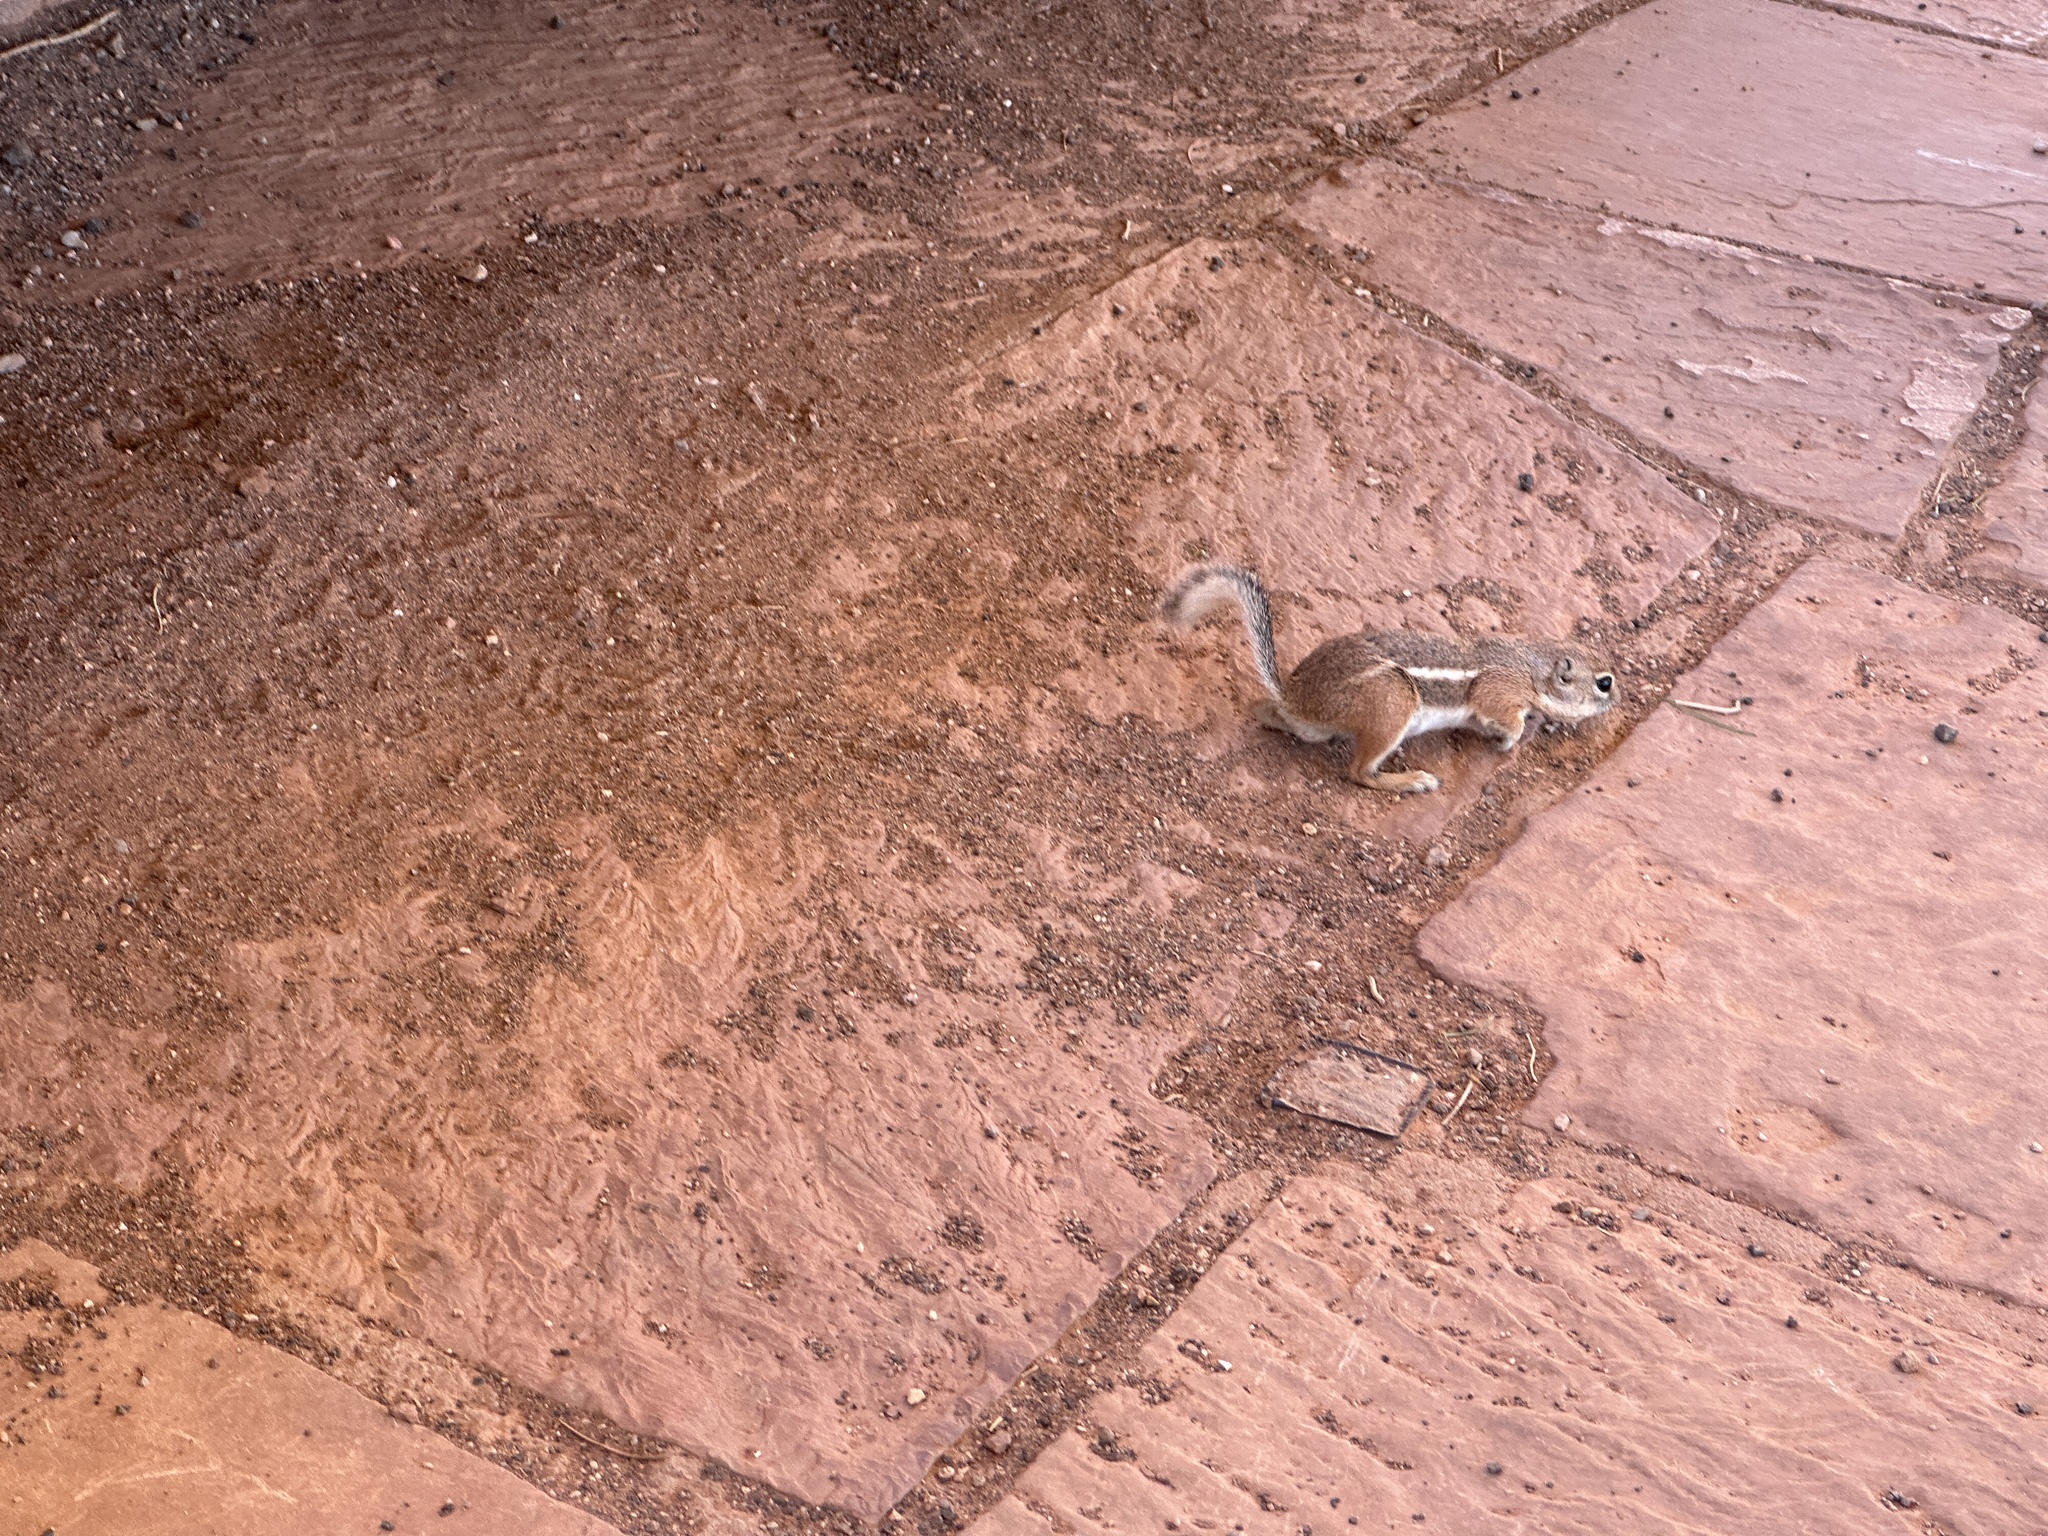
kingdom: Animalia
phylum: Chordata
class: Mammalia
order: Rodentia
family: Sciuridae
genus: Ammospermophilus
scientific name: Ammospermophilus leucurus
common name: White-tailed antelope squirrel
